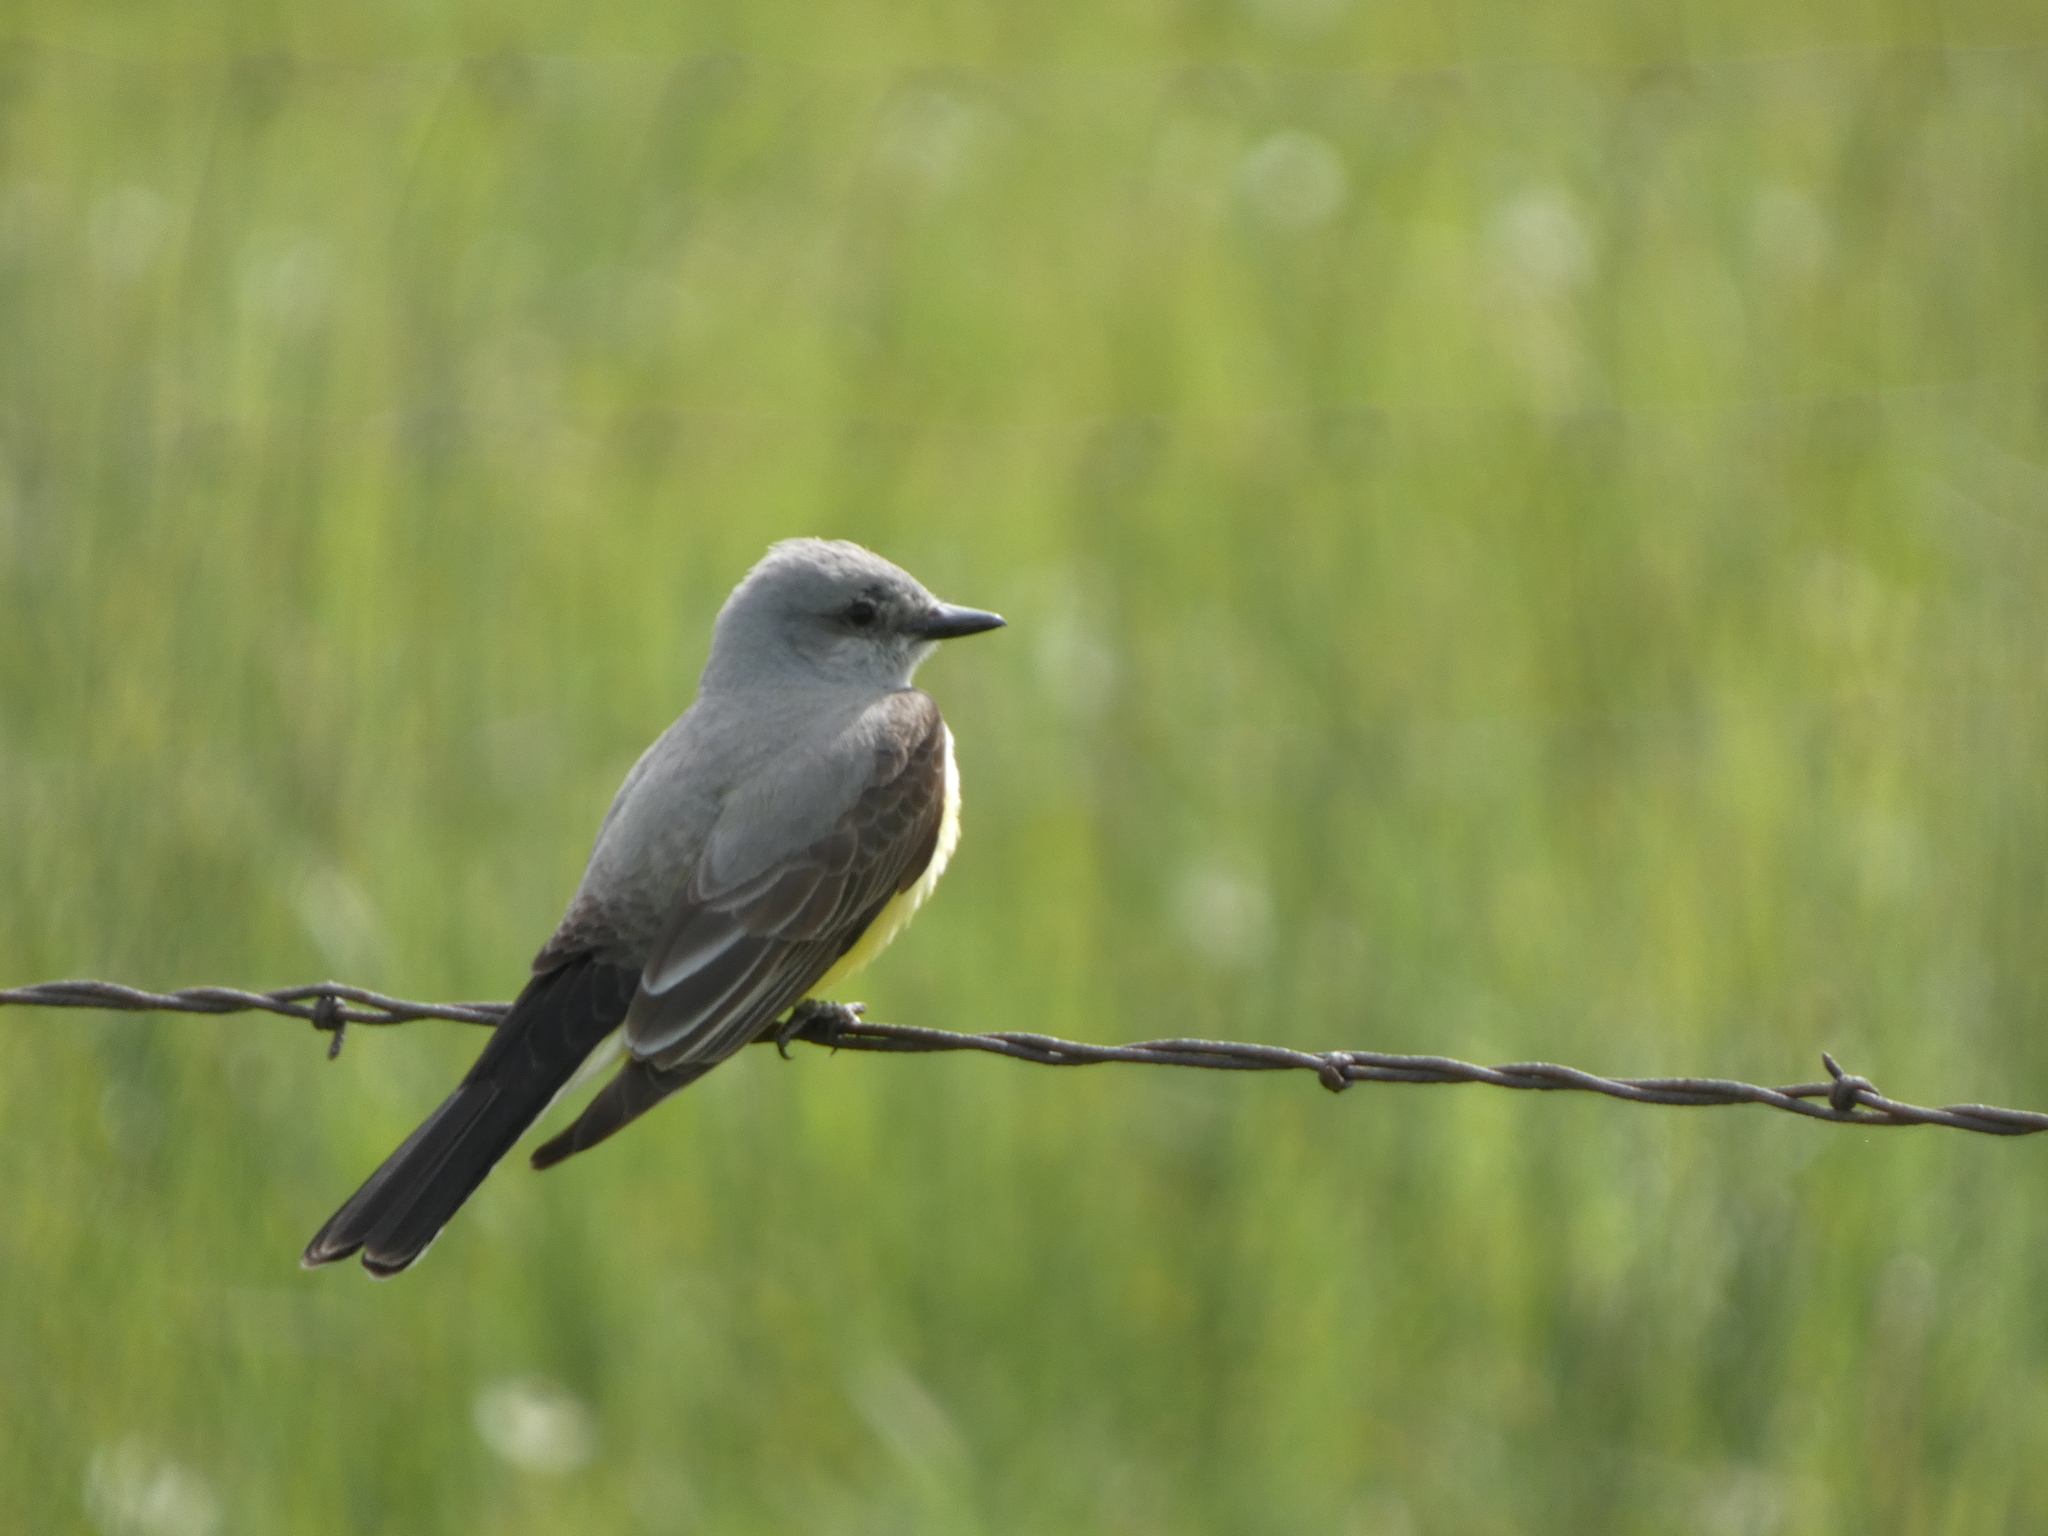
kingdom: Animalia
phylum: Chordata
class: Aves
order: Passeriformes
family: Tyrannidae
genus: Tyrannus
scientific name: Tyrannus verticalis
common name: Western kingbird
